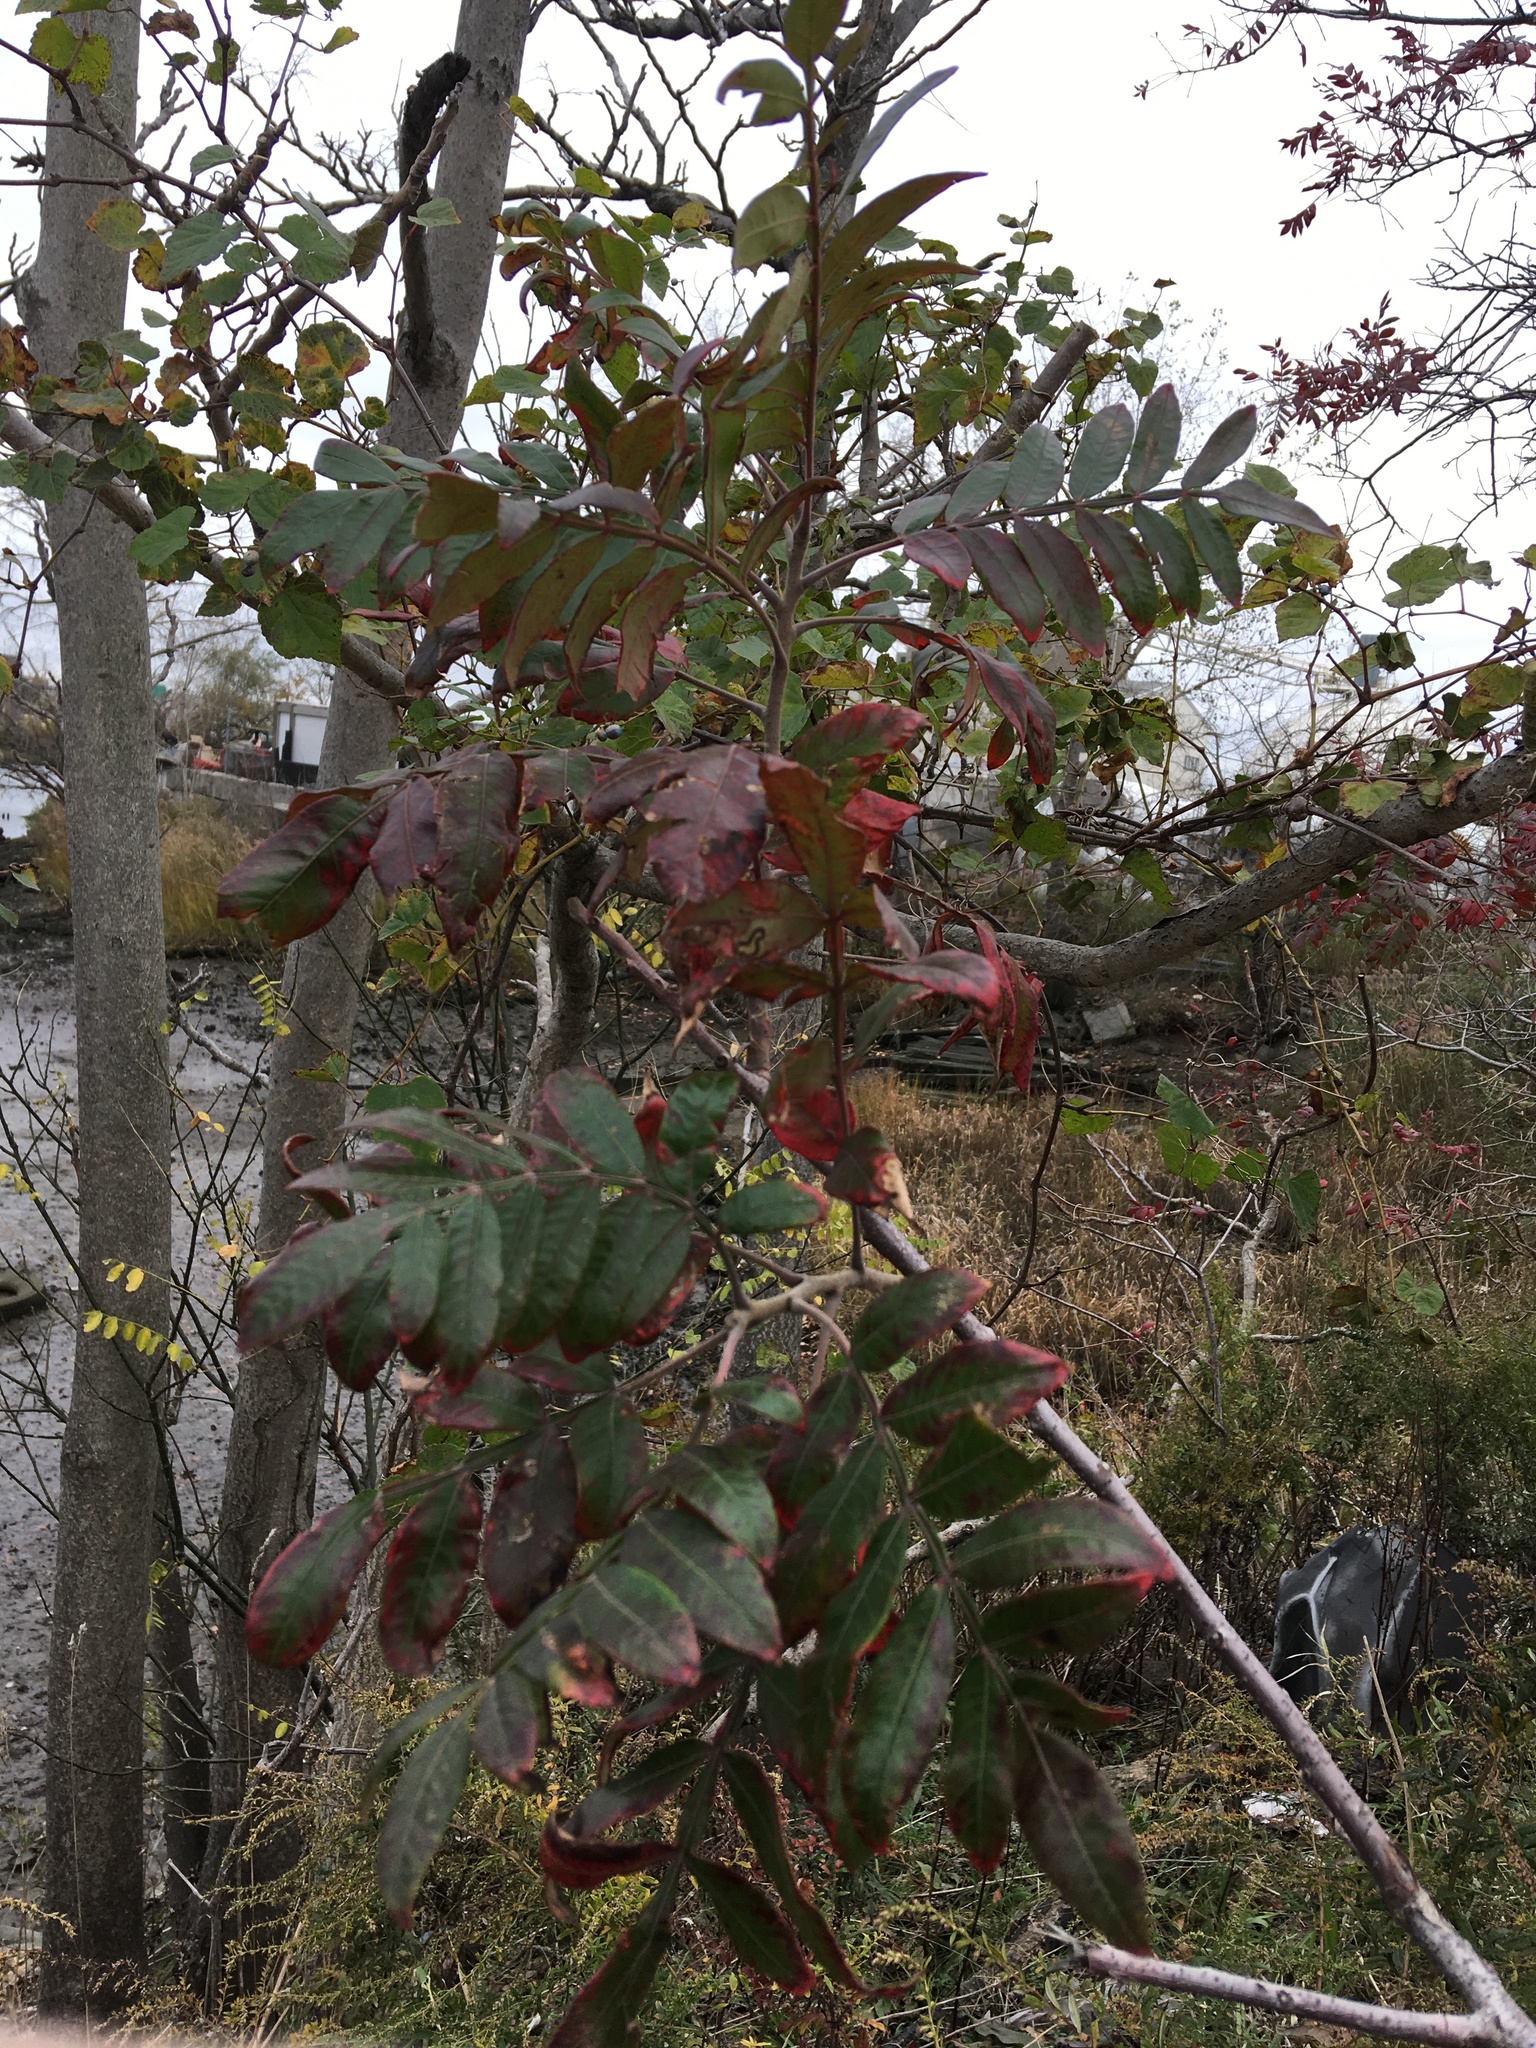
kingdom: Plantae
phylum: Tracheophyta
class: Magnoliopsida
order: Sapindales
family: Anacardiaceae
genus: Rhus
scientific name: Rhus copallina
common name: Shining sumac
